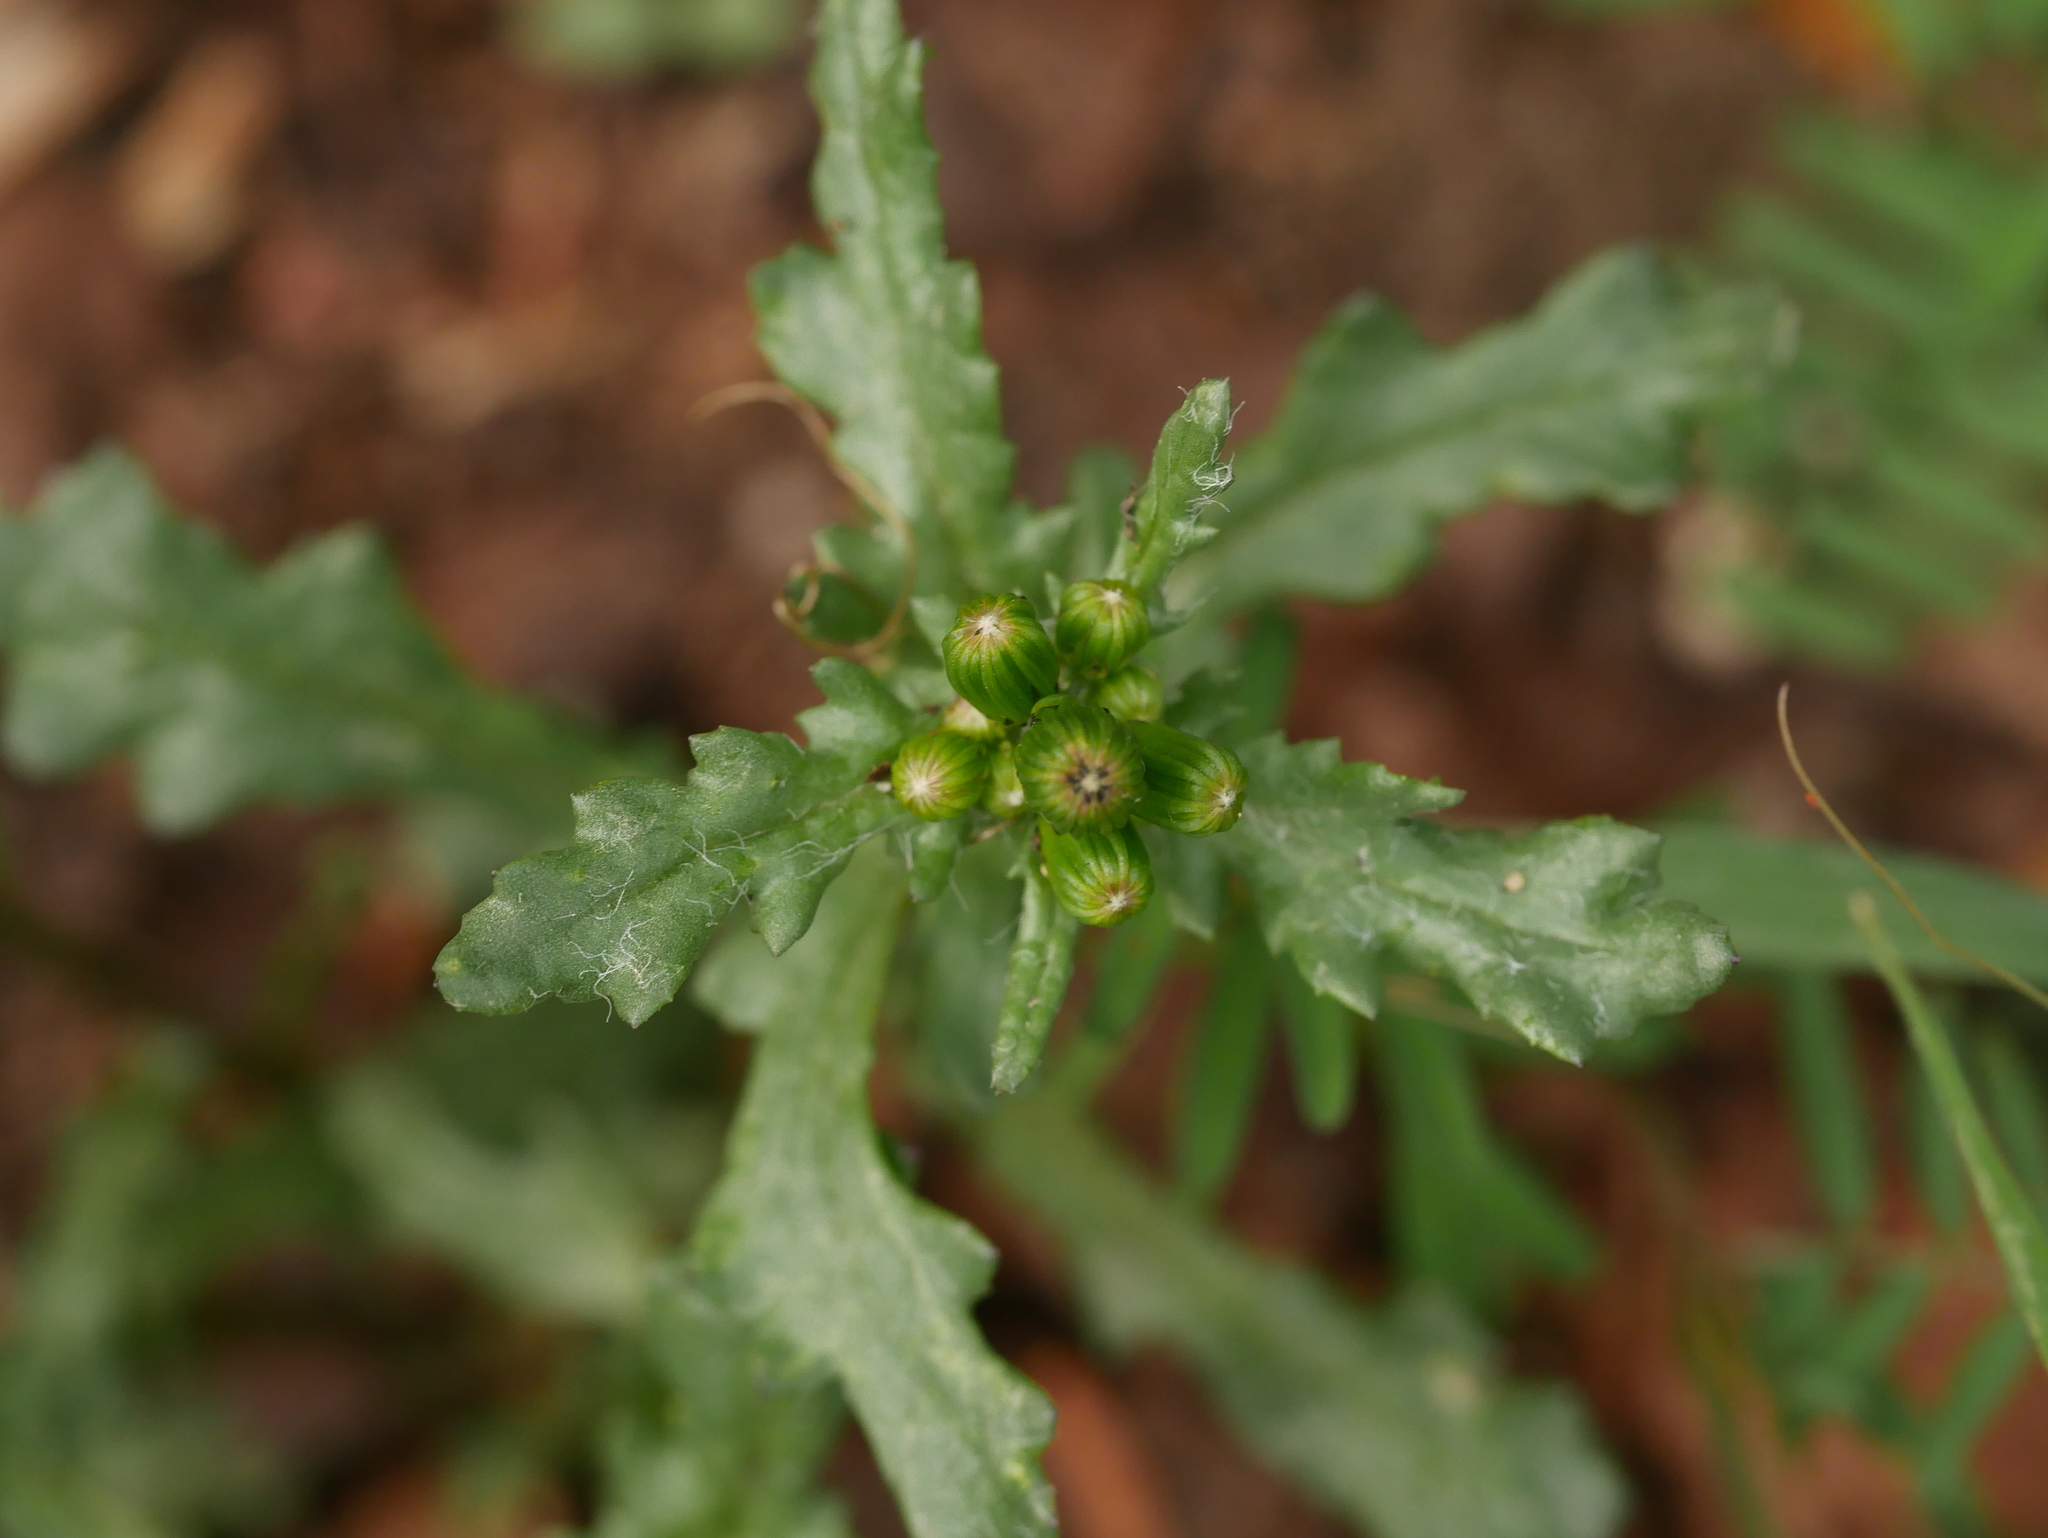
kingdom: Plantae
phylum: Tracheophyta
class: Magnoliopsida
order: Asterales
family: Asteraceae
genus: Senecio
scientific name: Senecio vulgaris
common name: Old-man-in-the-spring
